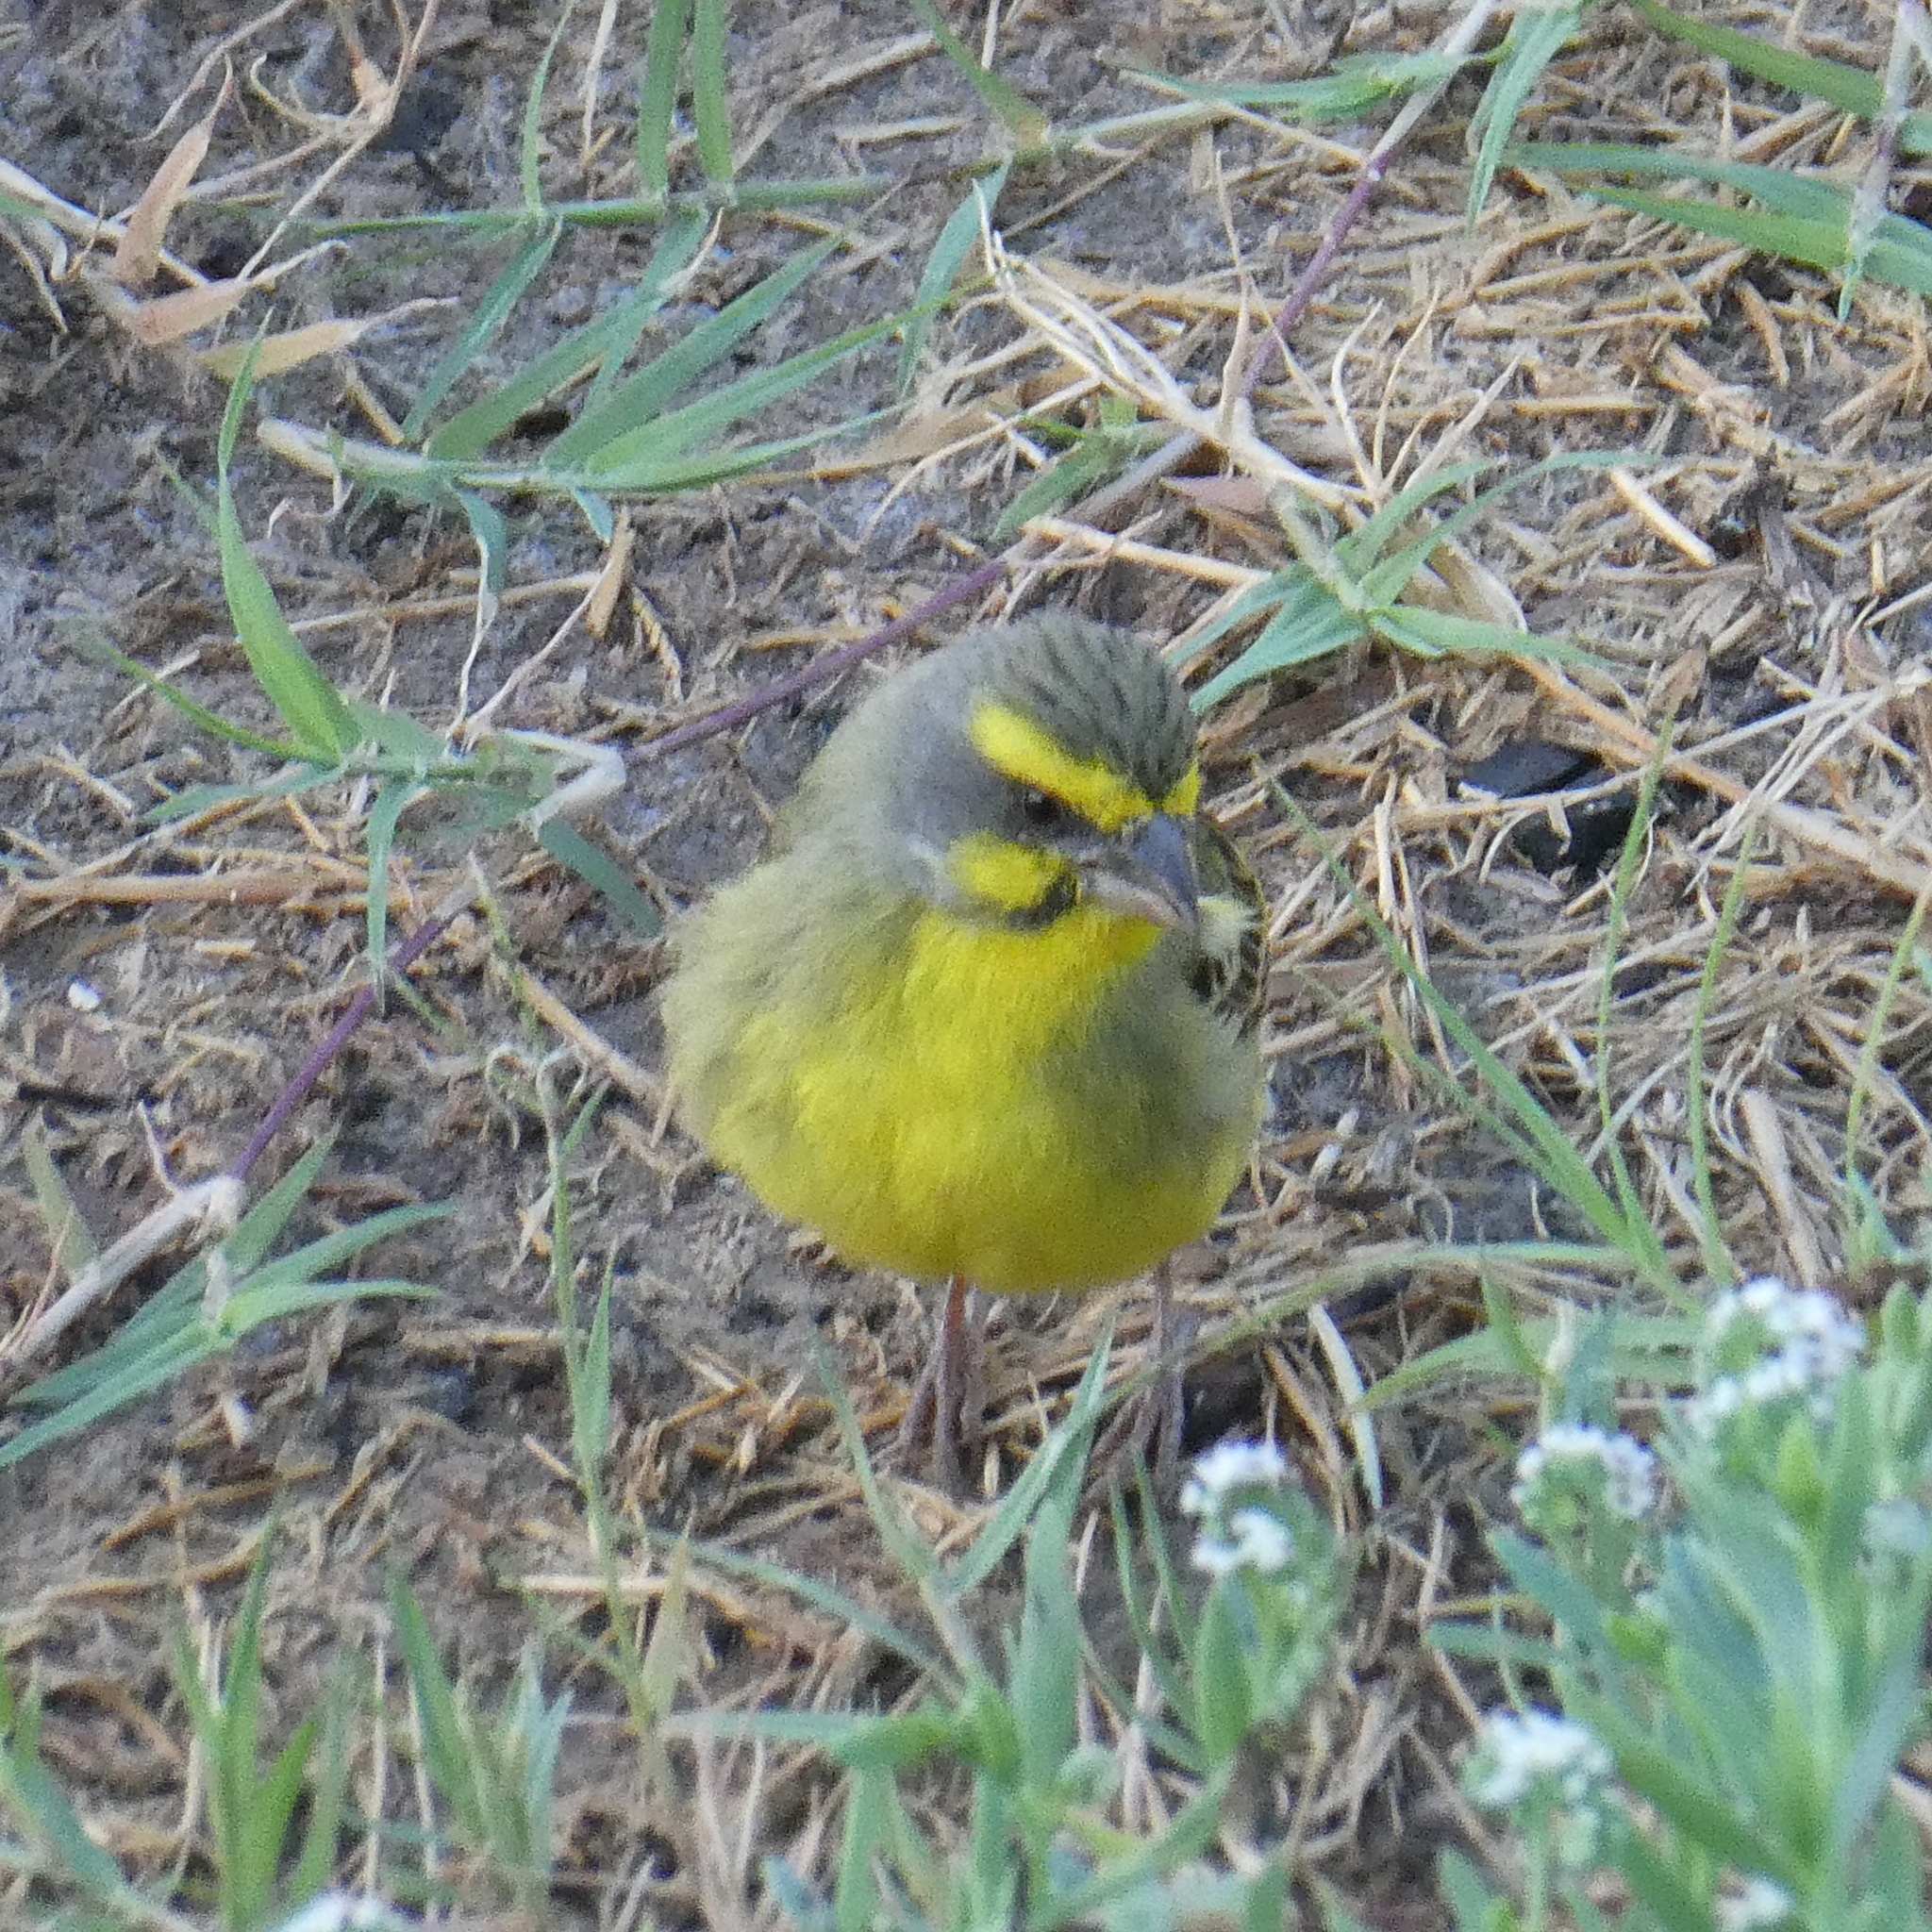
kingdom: Animalia
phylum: Chordata
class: Aves
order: Passeriformes
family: Fringillidae
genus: Crithagra
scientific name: Crithagra mozambica
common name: Yellow-fronted canary
